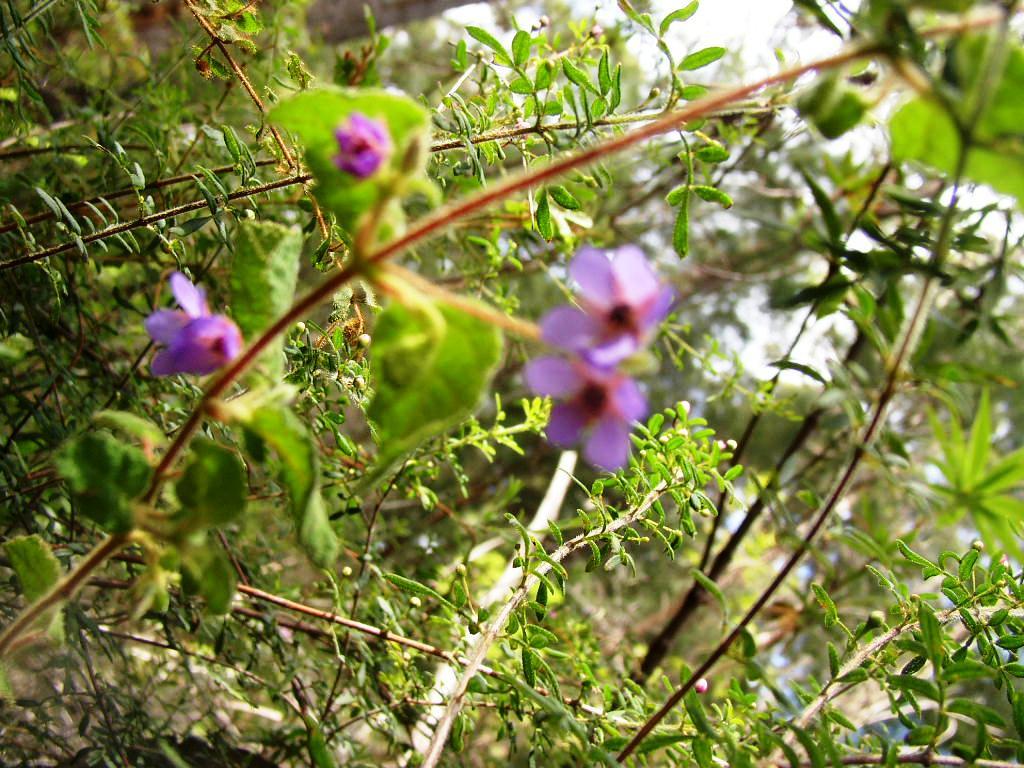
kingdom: Plantae
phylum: Tracheophyta
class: Magnoliopsida
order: Oxalidales
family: Elaeocarpaceae
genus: Tremandra
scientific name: Tremandra stelligera
